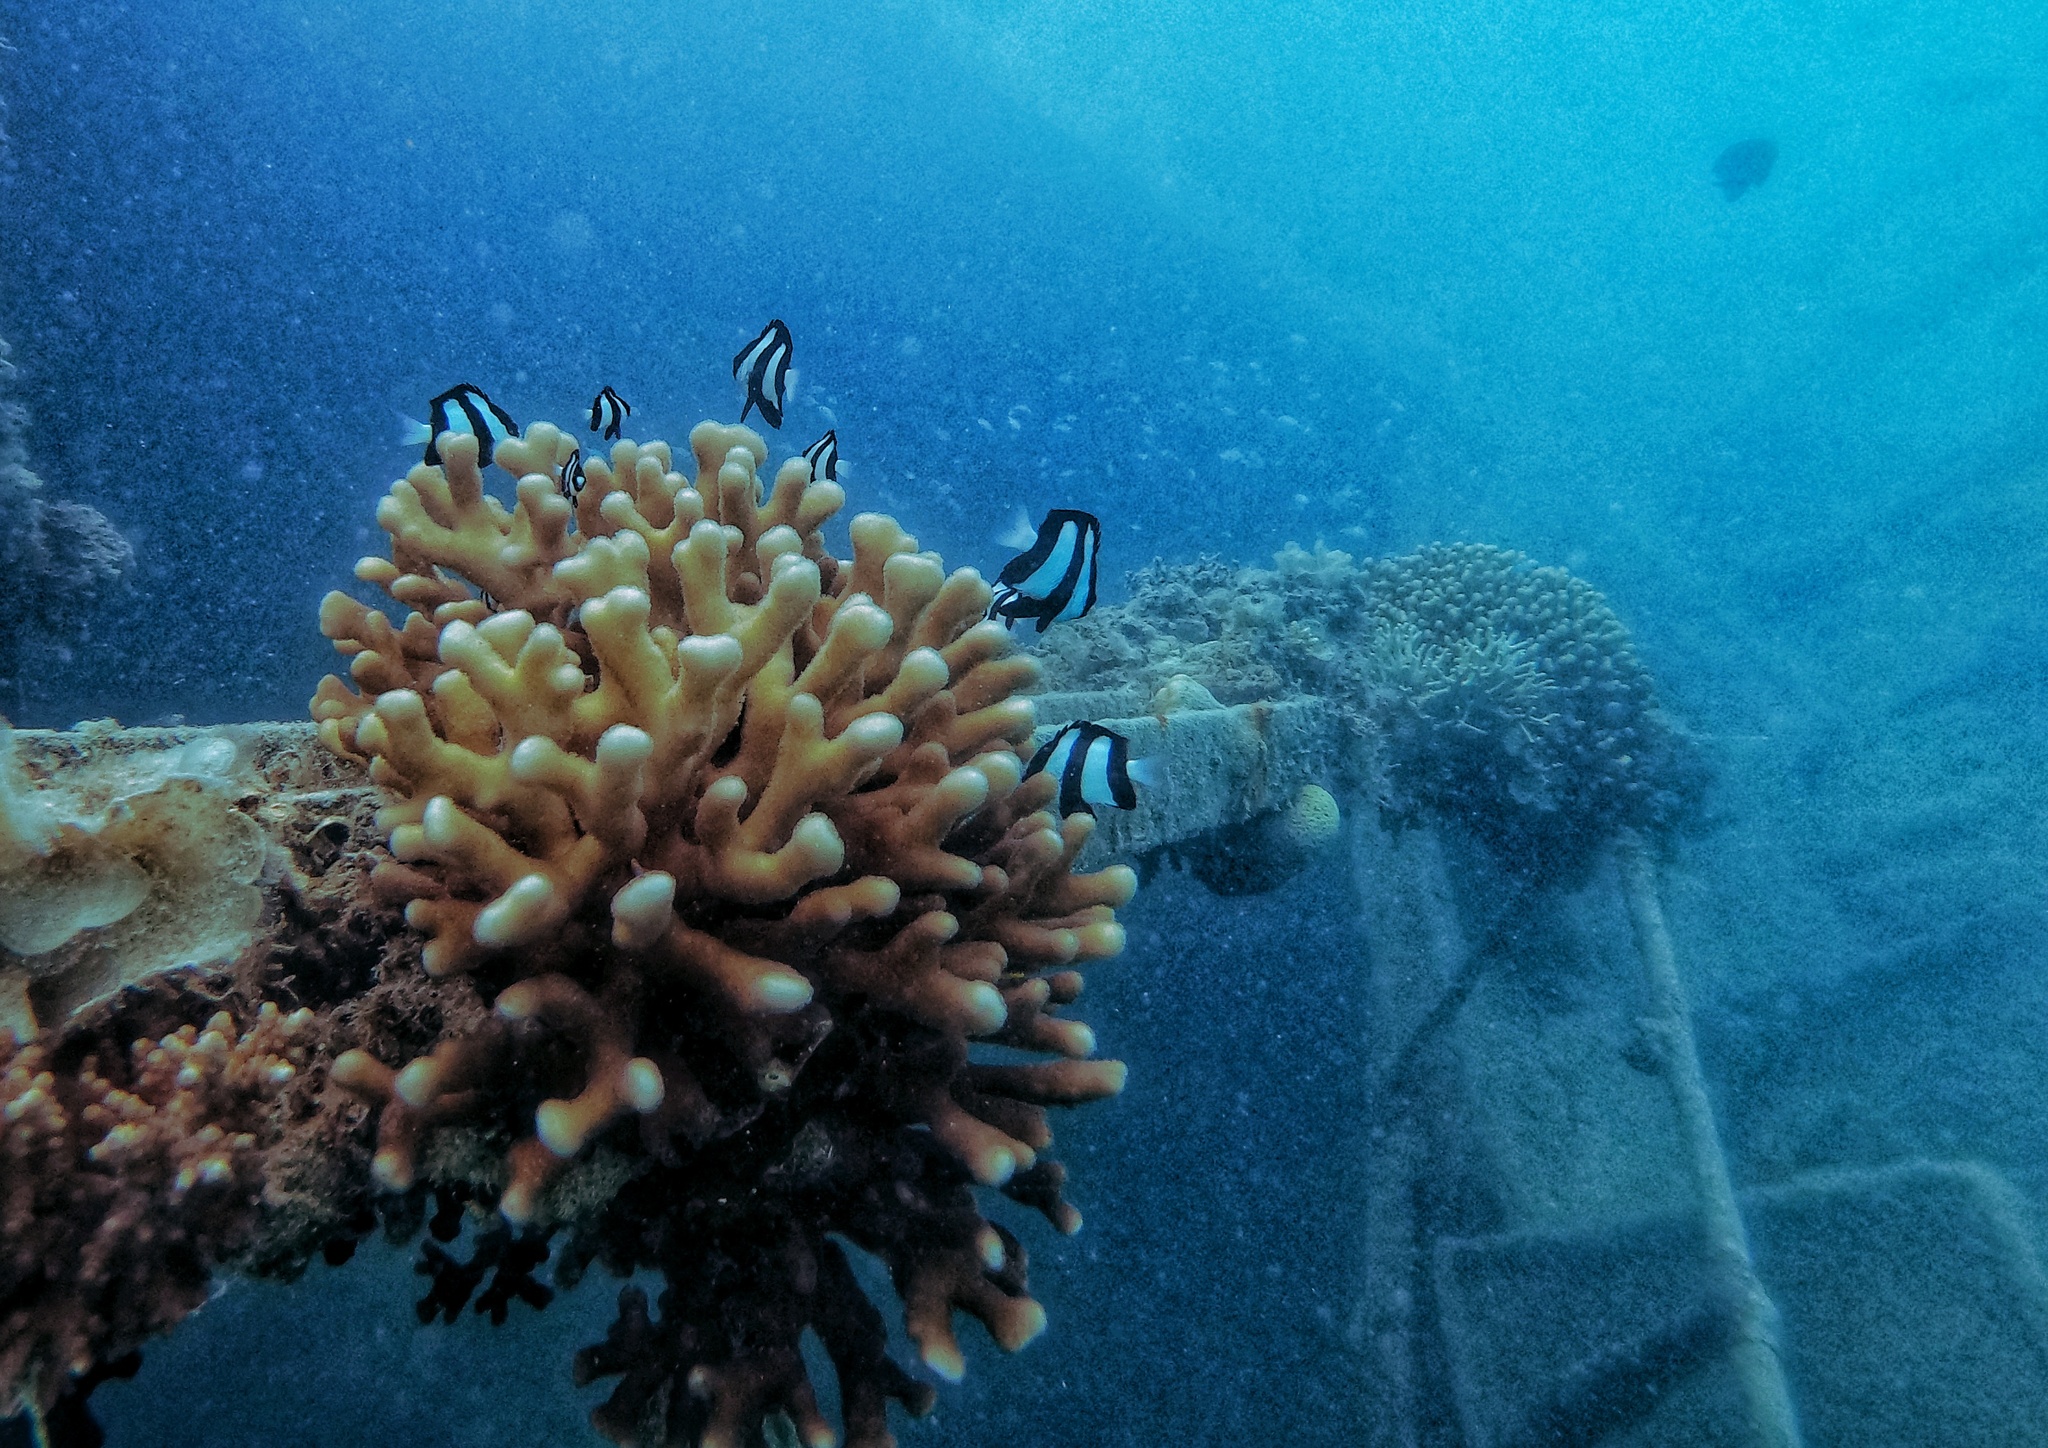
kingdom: Animalia
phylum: Chordata
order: Perciformes
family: Pomacentridae
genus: Dascyllus
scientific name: Dascyllus aruanus
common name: Humbug dascyllus
